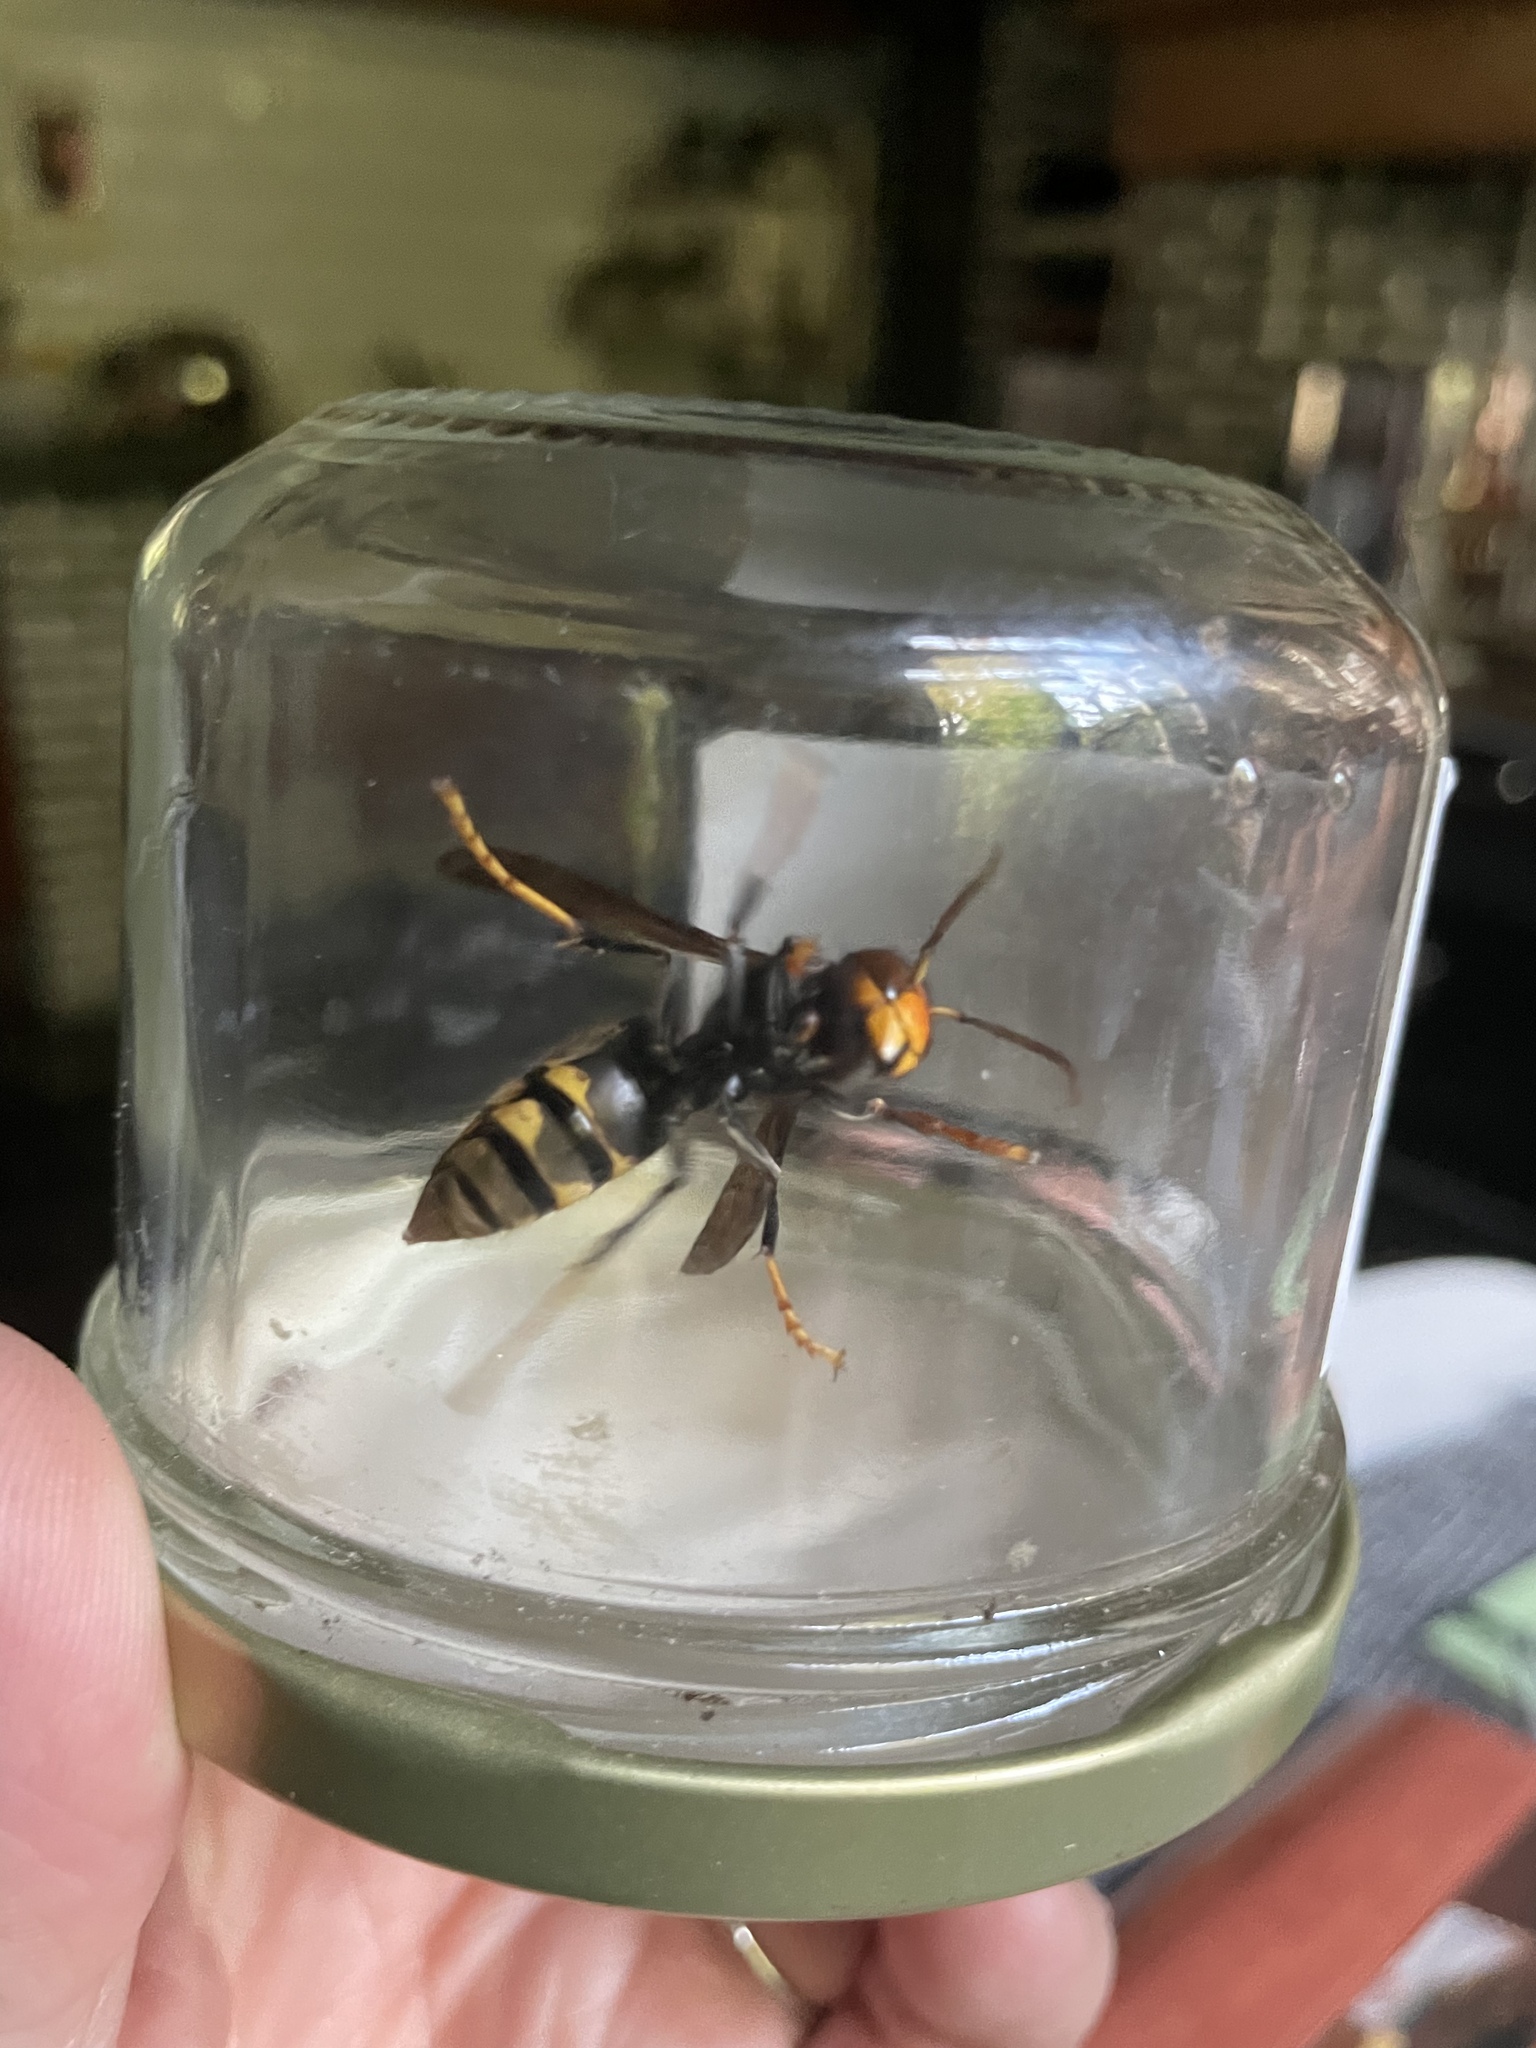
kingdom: Animalia
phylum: Arthropoda
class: Insecta
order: Hymenoptera
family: Vespidae
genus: Vespa
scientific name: Vespa velutina
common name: Asian hornet
